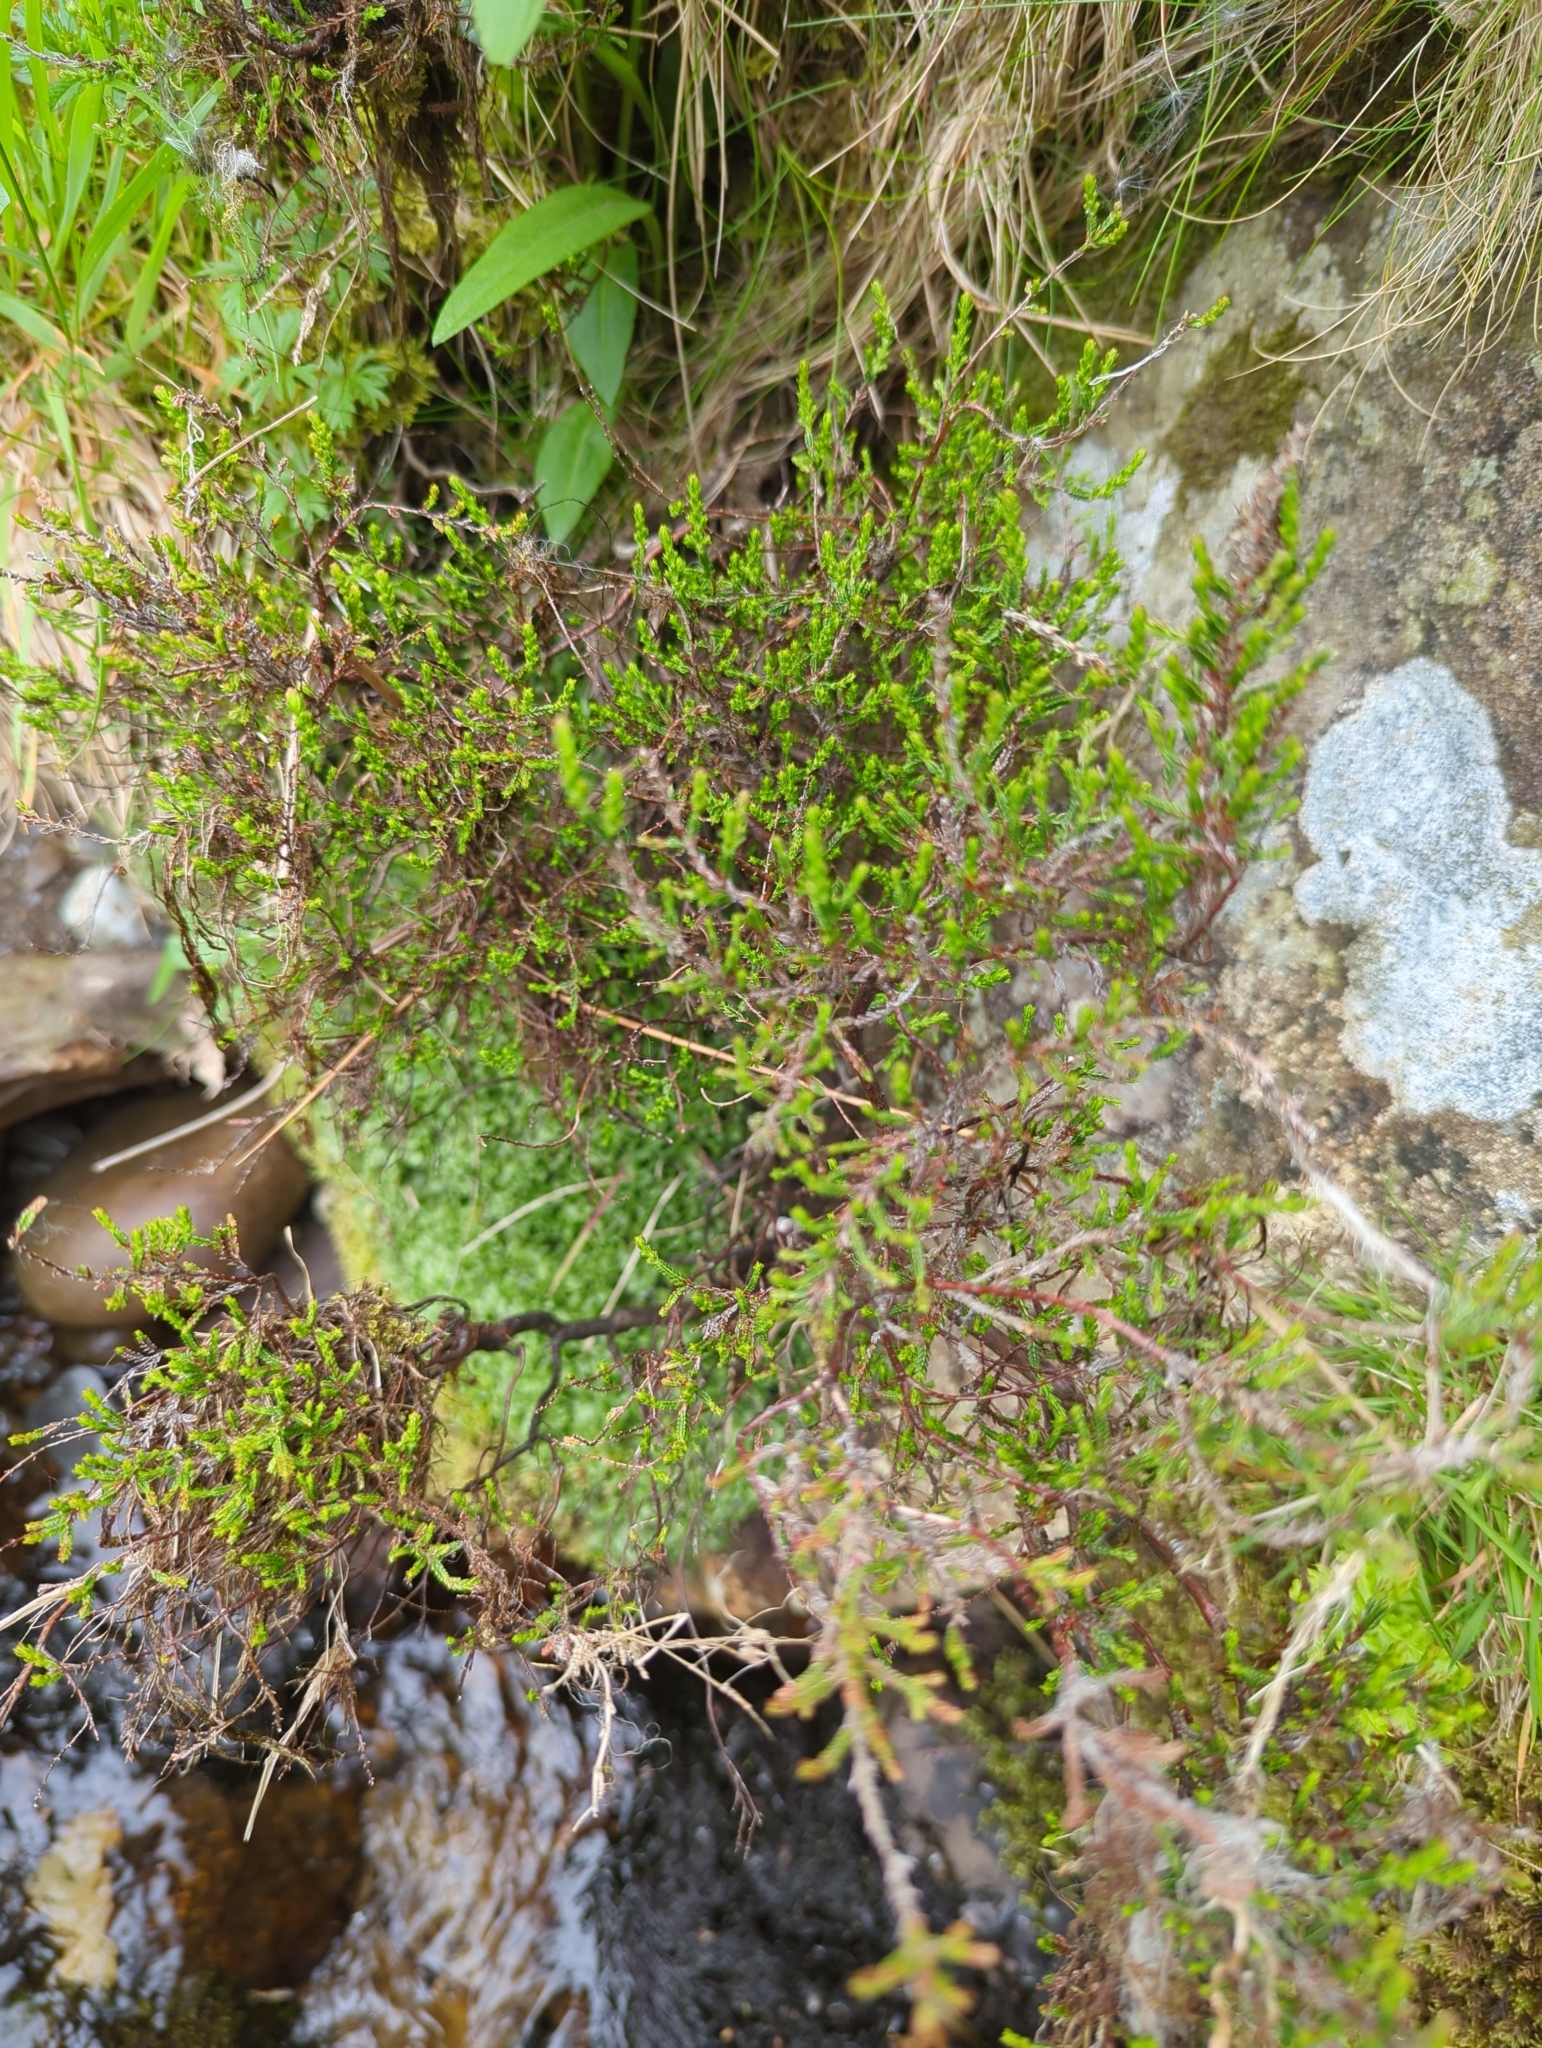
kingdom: Plantae
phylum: Tracheophyta
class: Magnoliopsida
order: Ericales
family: Ericaceae
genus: Calluna
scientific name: Calluna vulgaris
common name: Heather
